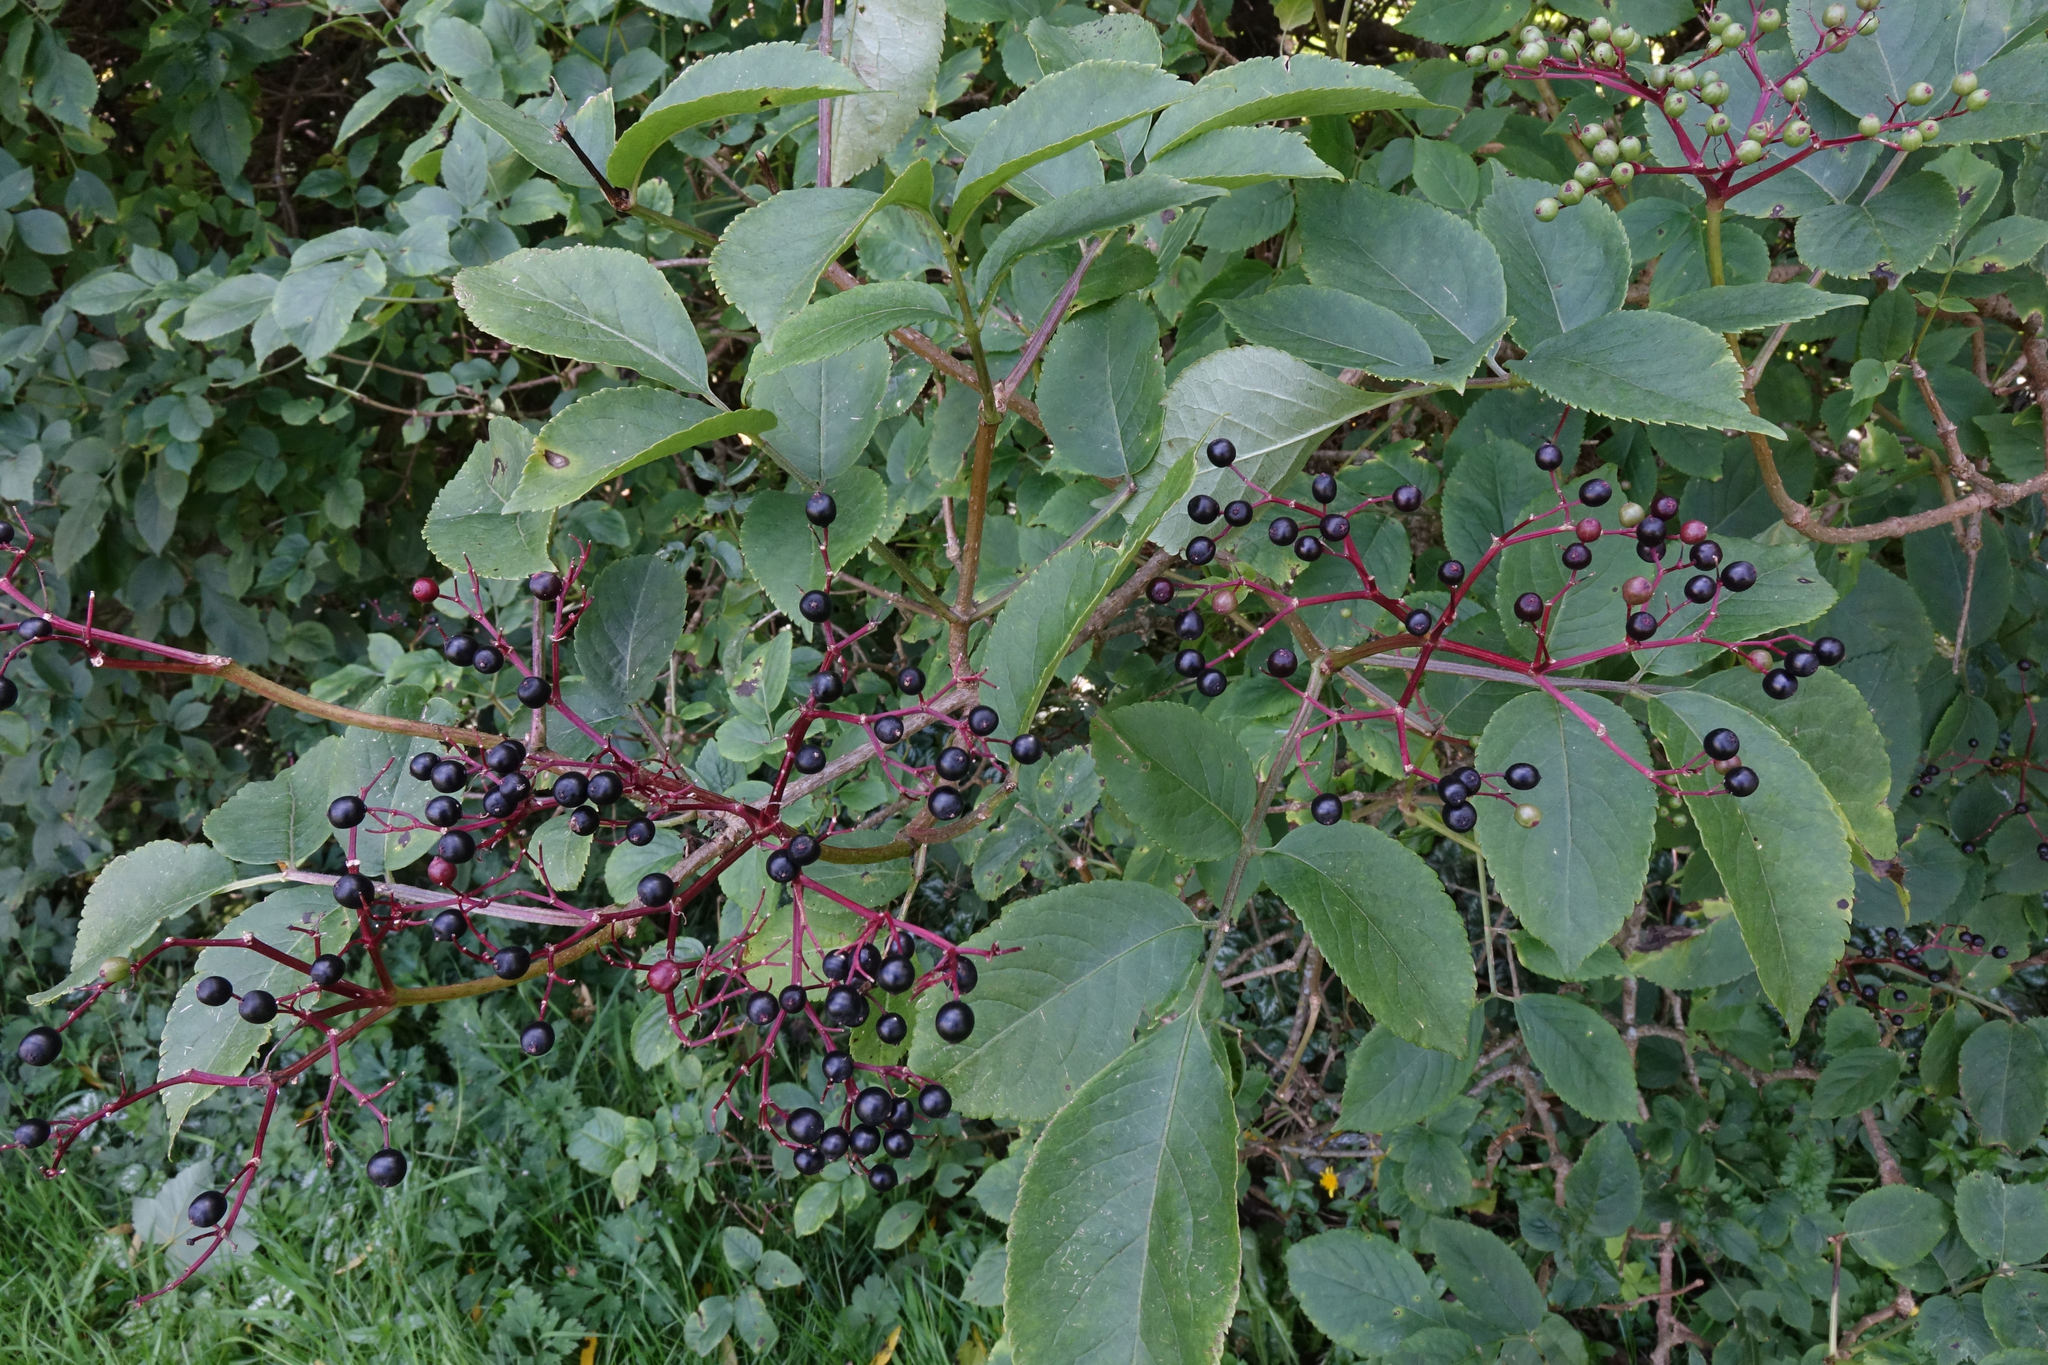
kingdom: Plantae
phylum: Tracheophyta
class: Magnoliopsida
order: Dipsacales
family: Viburnaceae
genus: Sambucus
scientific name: Sambucus nigra
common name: Elder
